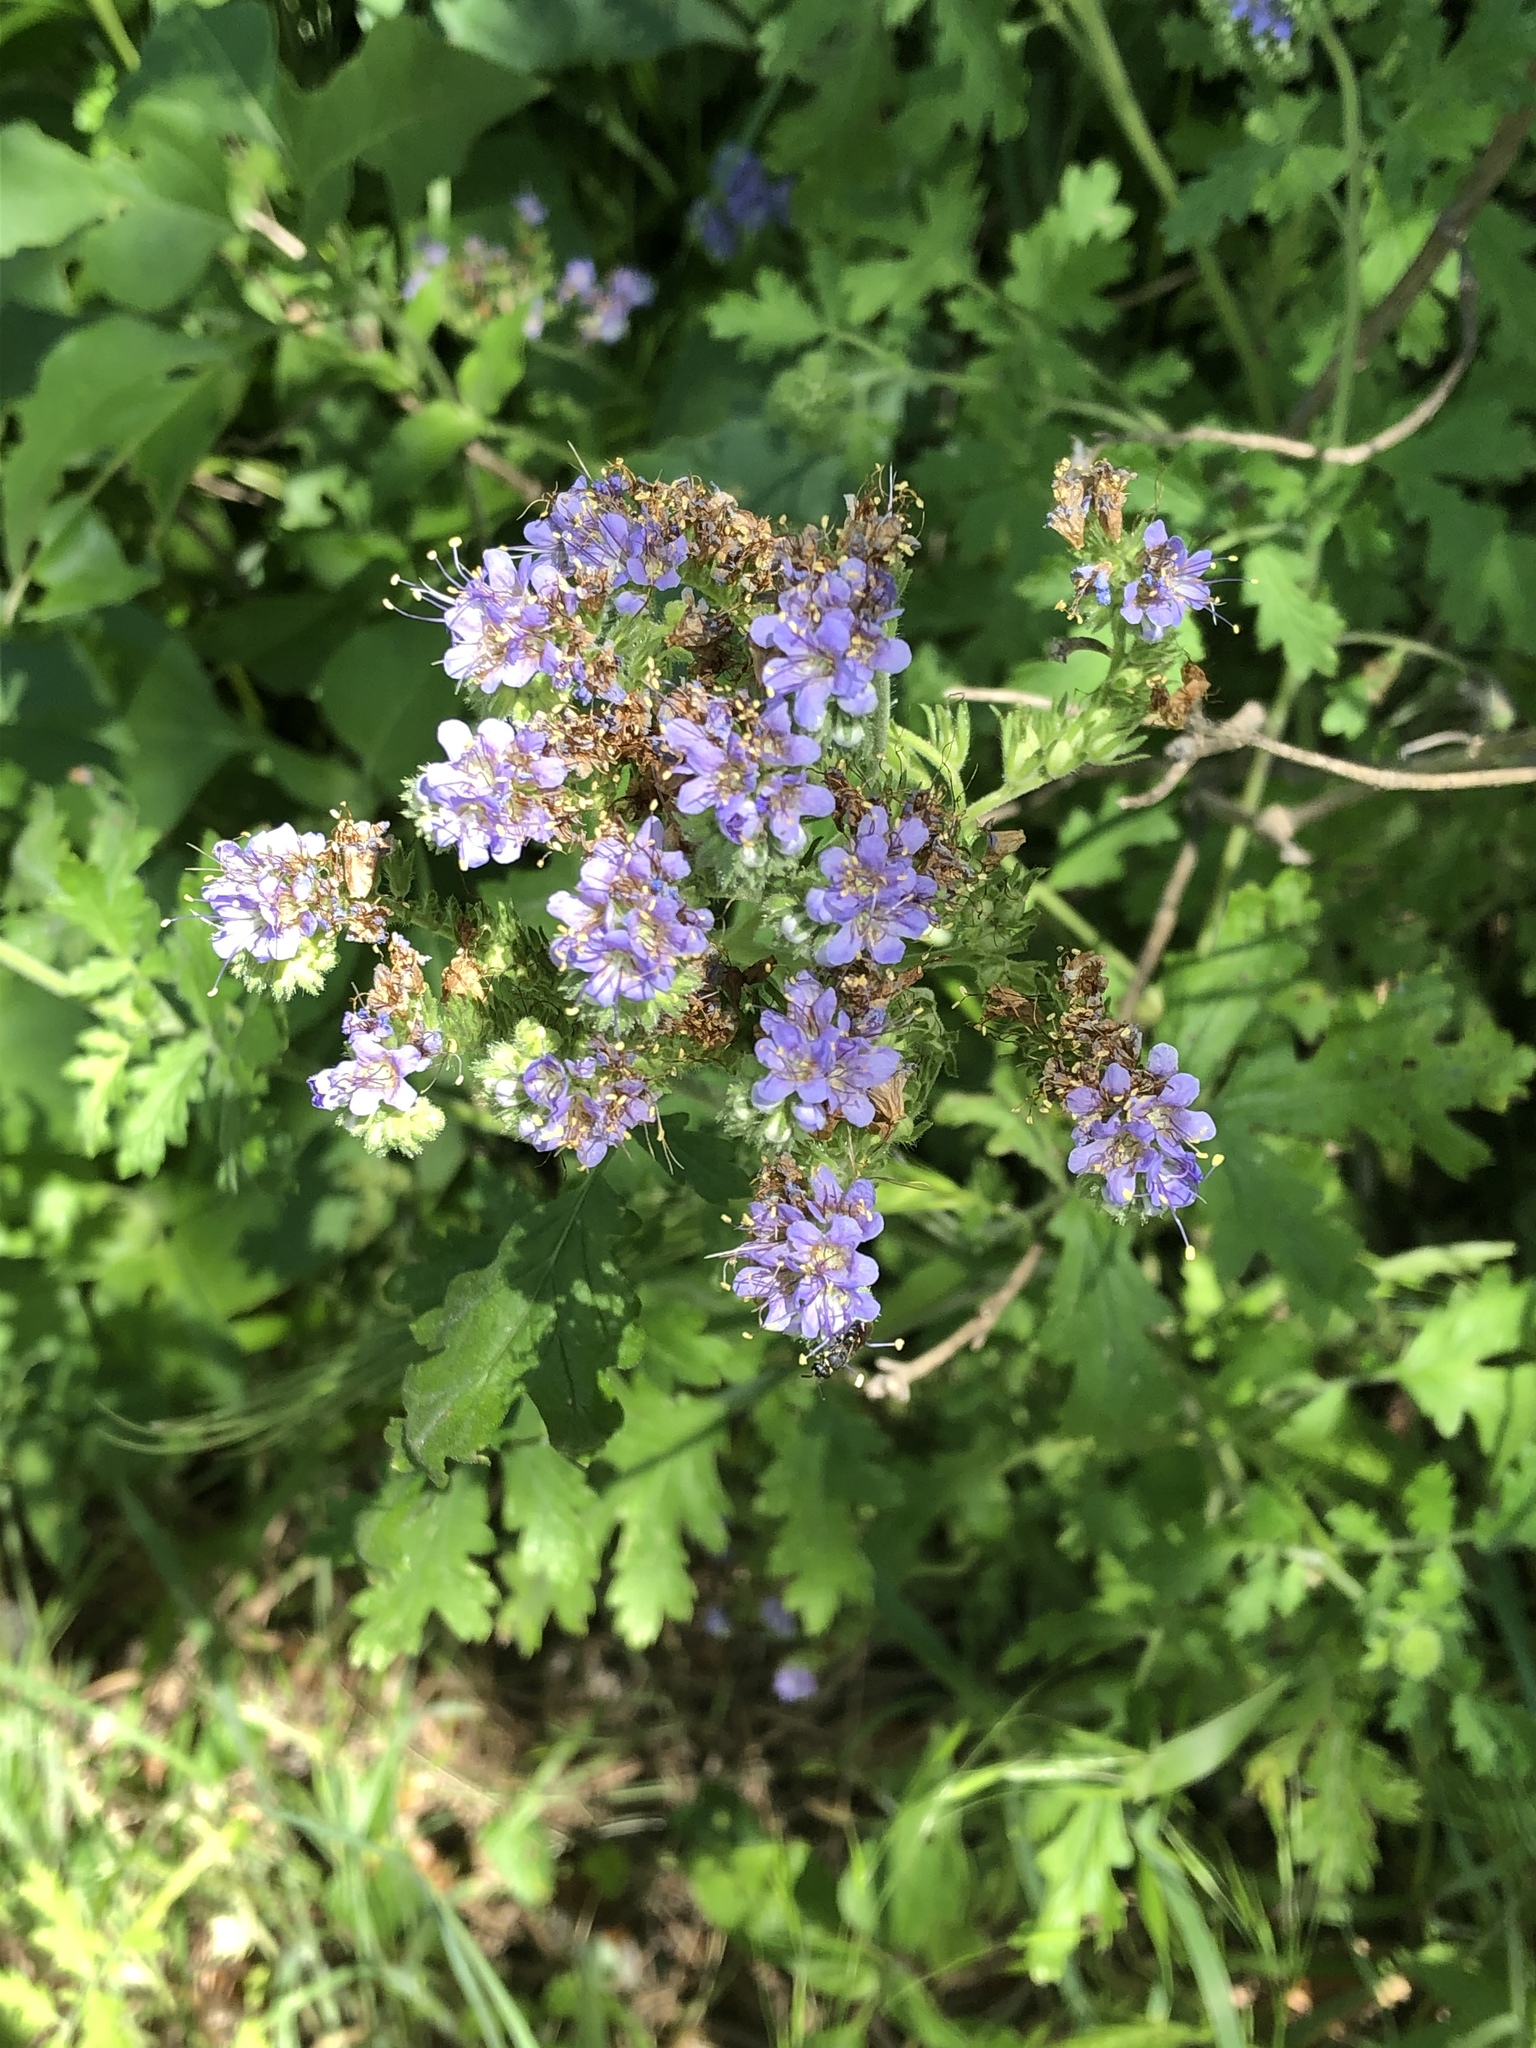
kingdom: Plantae
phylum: Tracheophyta
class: Magnoliopsida
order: Boraginales
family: Hydrophyllaceae
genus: Phacelia
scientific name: Phacelia congesta
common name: Blue curls
